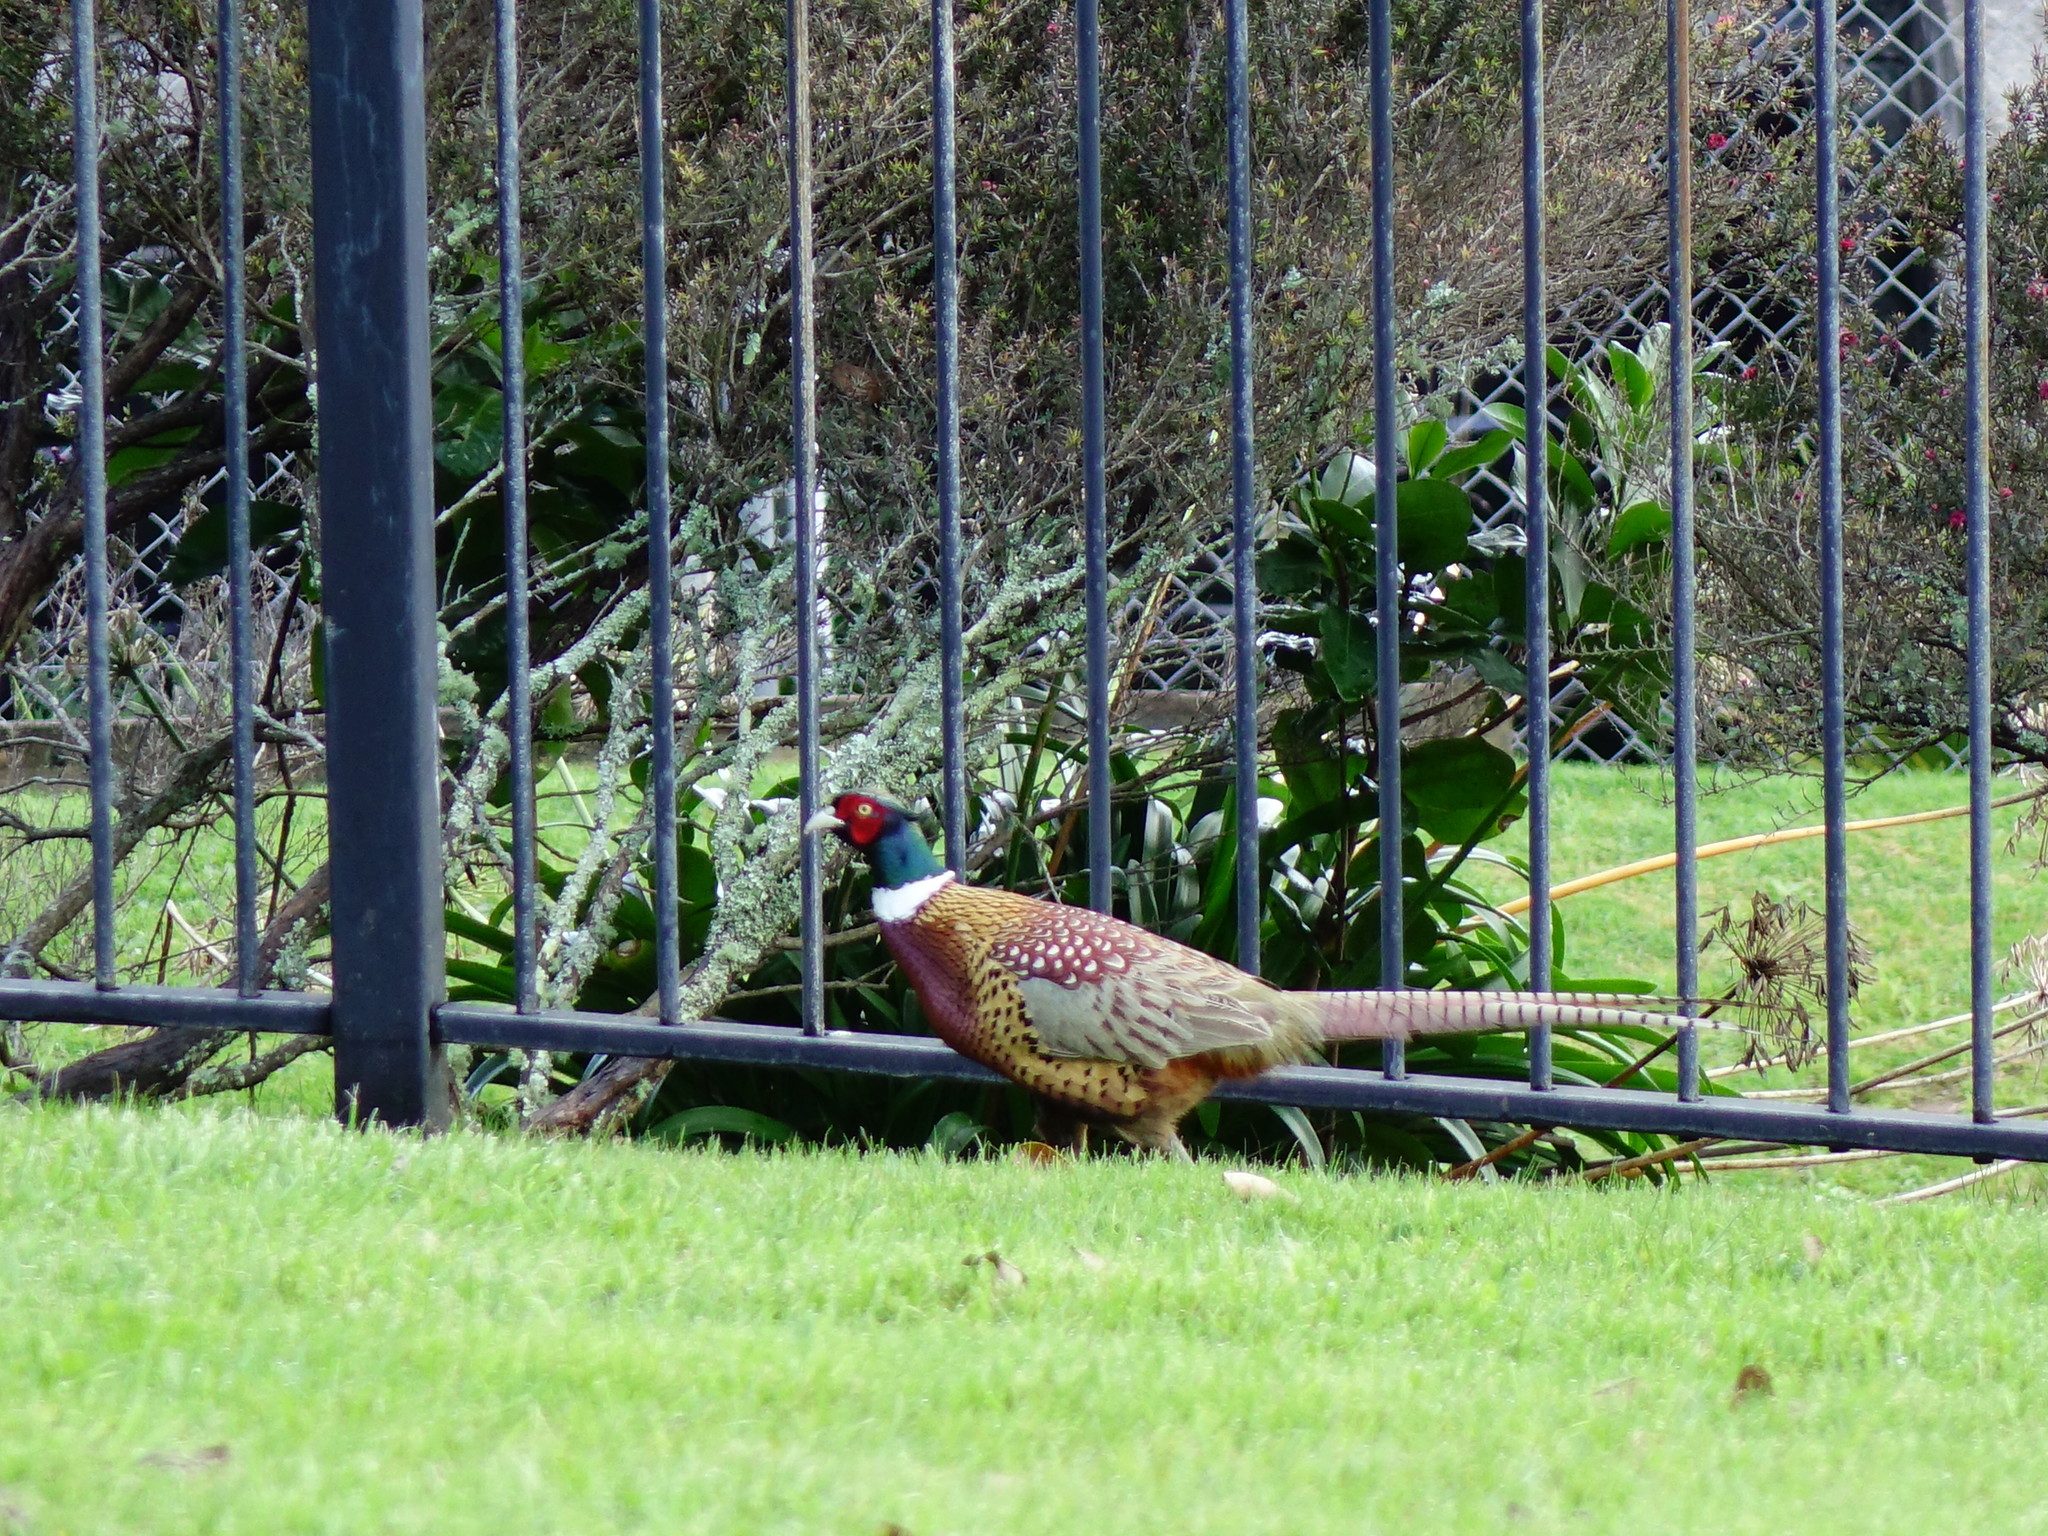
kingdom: Animalia
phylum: Chordata
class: Aves
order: Galliformes
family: Phasianidae
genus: Phasianus
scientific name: Phasianus colchicus
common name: Common pheasant
